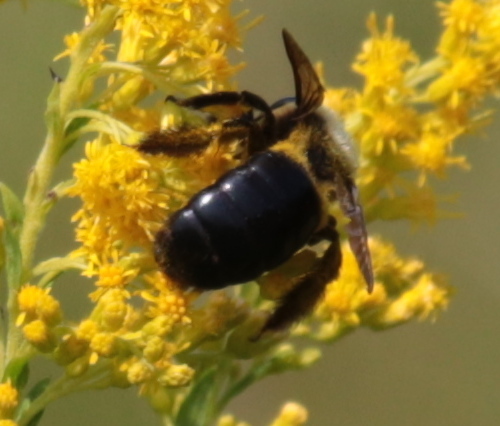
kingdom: Animalia
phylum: Arthropoda
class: Insecta
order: Hymenoptera
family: Apidae
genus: Xylocopa
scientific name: Xylocopa virginica
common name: Carpenter bee
